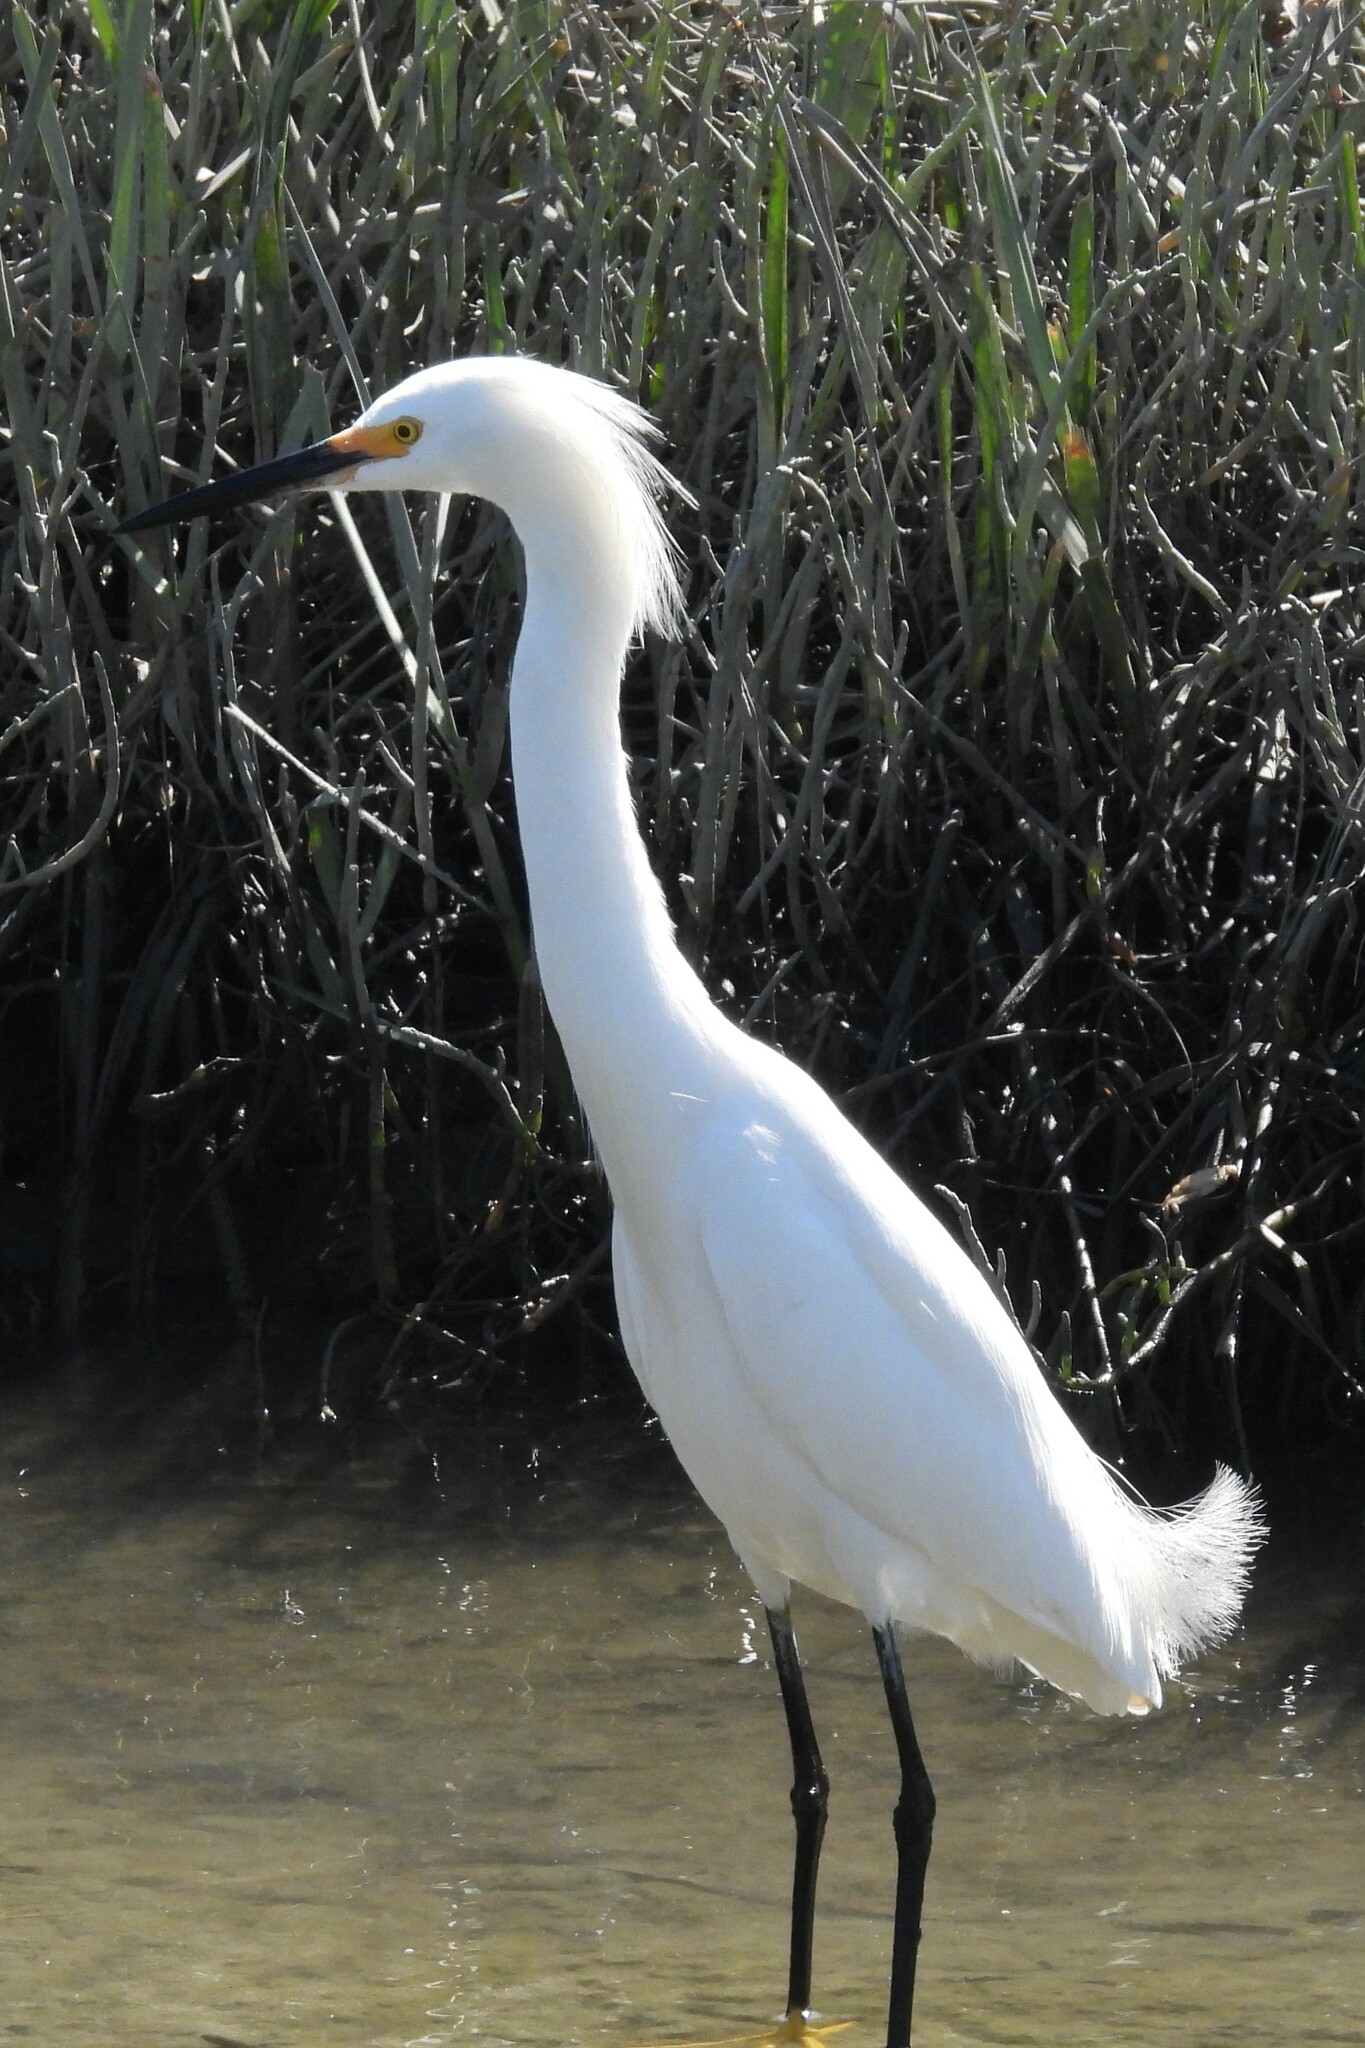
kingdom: Animalia
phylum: Chordata
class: Aves
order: Pelecaniformes
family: Ardeidae
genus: Egretta
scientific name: Egretta thula
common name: Snowy egret
